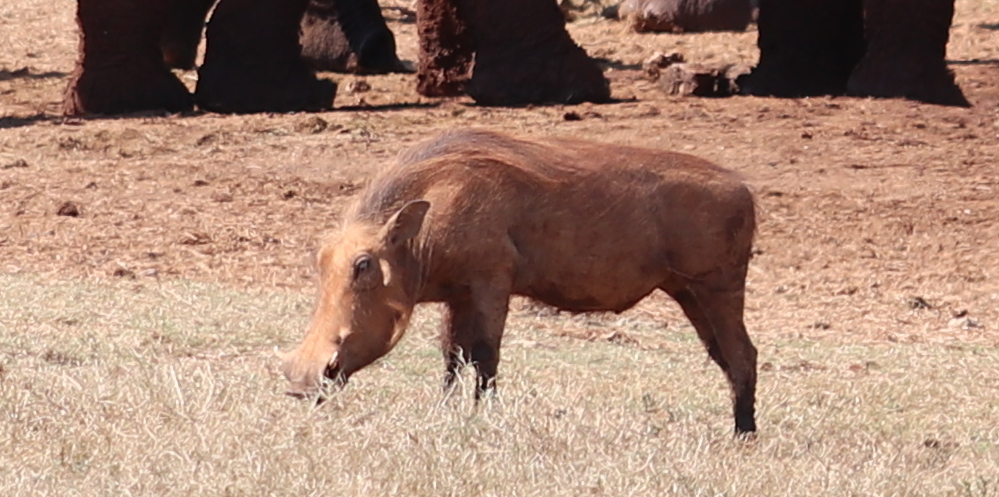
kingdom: Animalia
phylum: Chordata
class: Mammalia
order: Artiodactyla
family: Suidae
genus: Phacochoerus
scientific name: Phacochoerus africanus
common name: Common warthog
